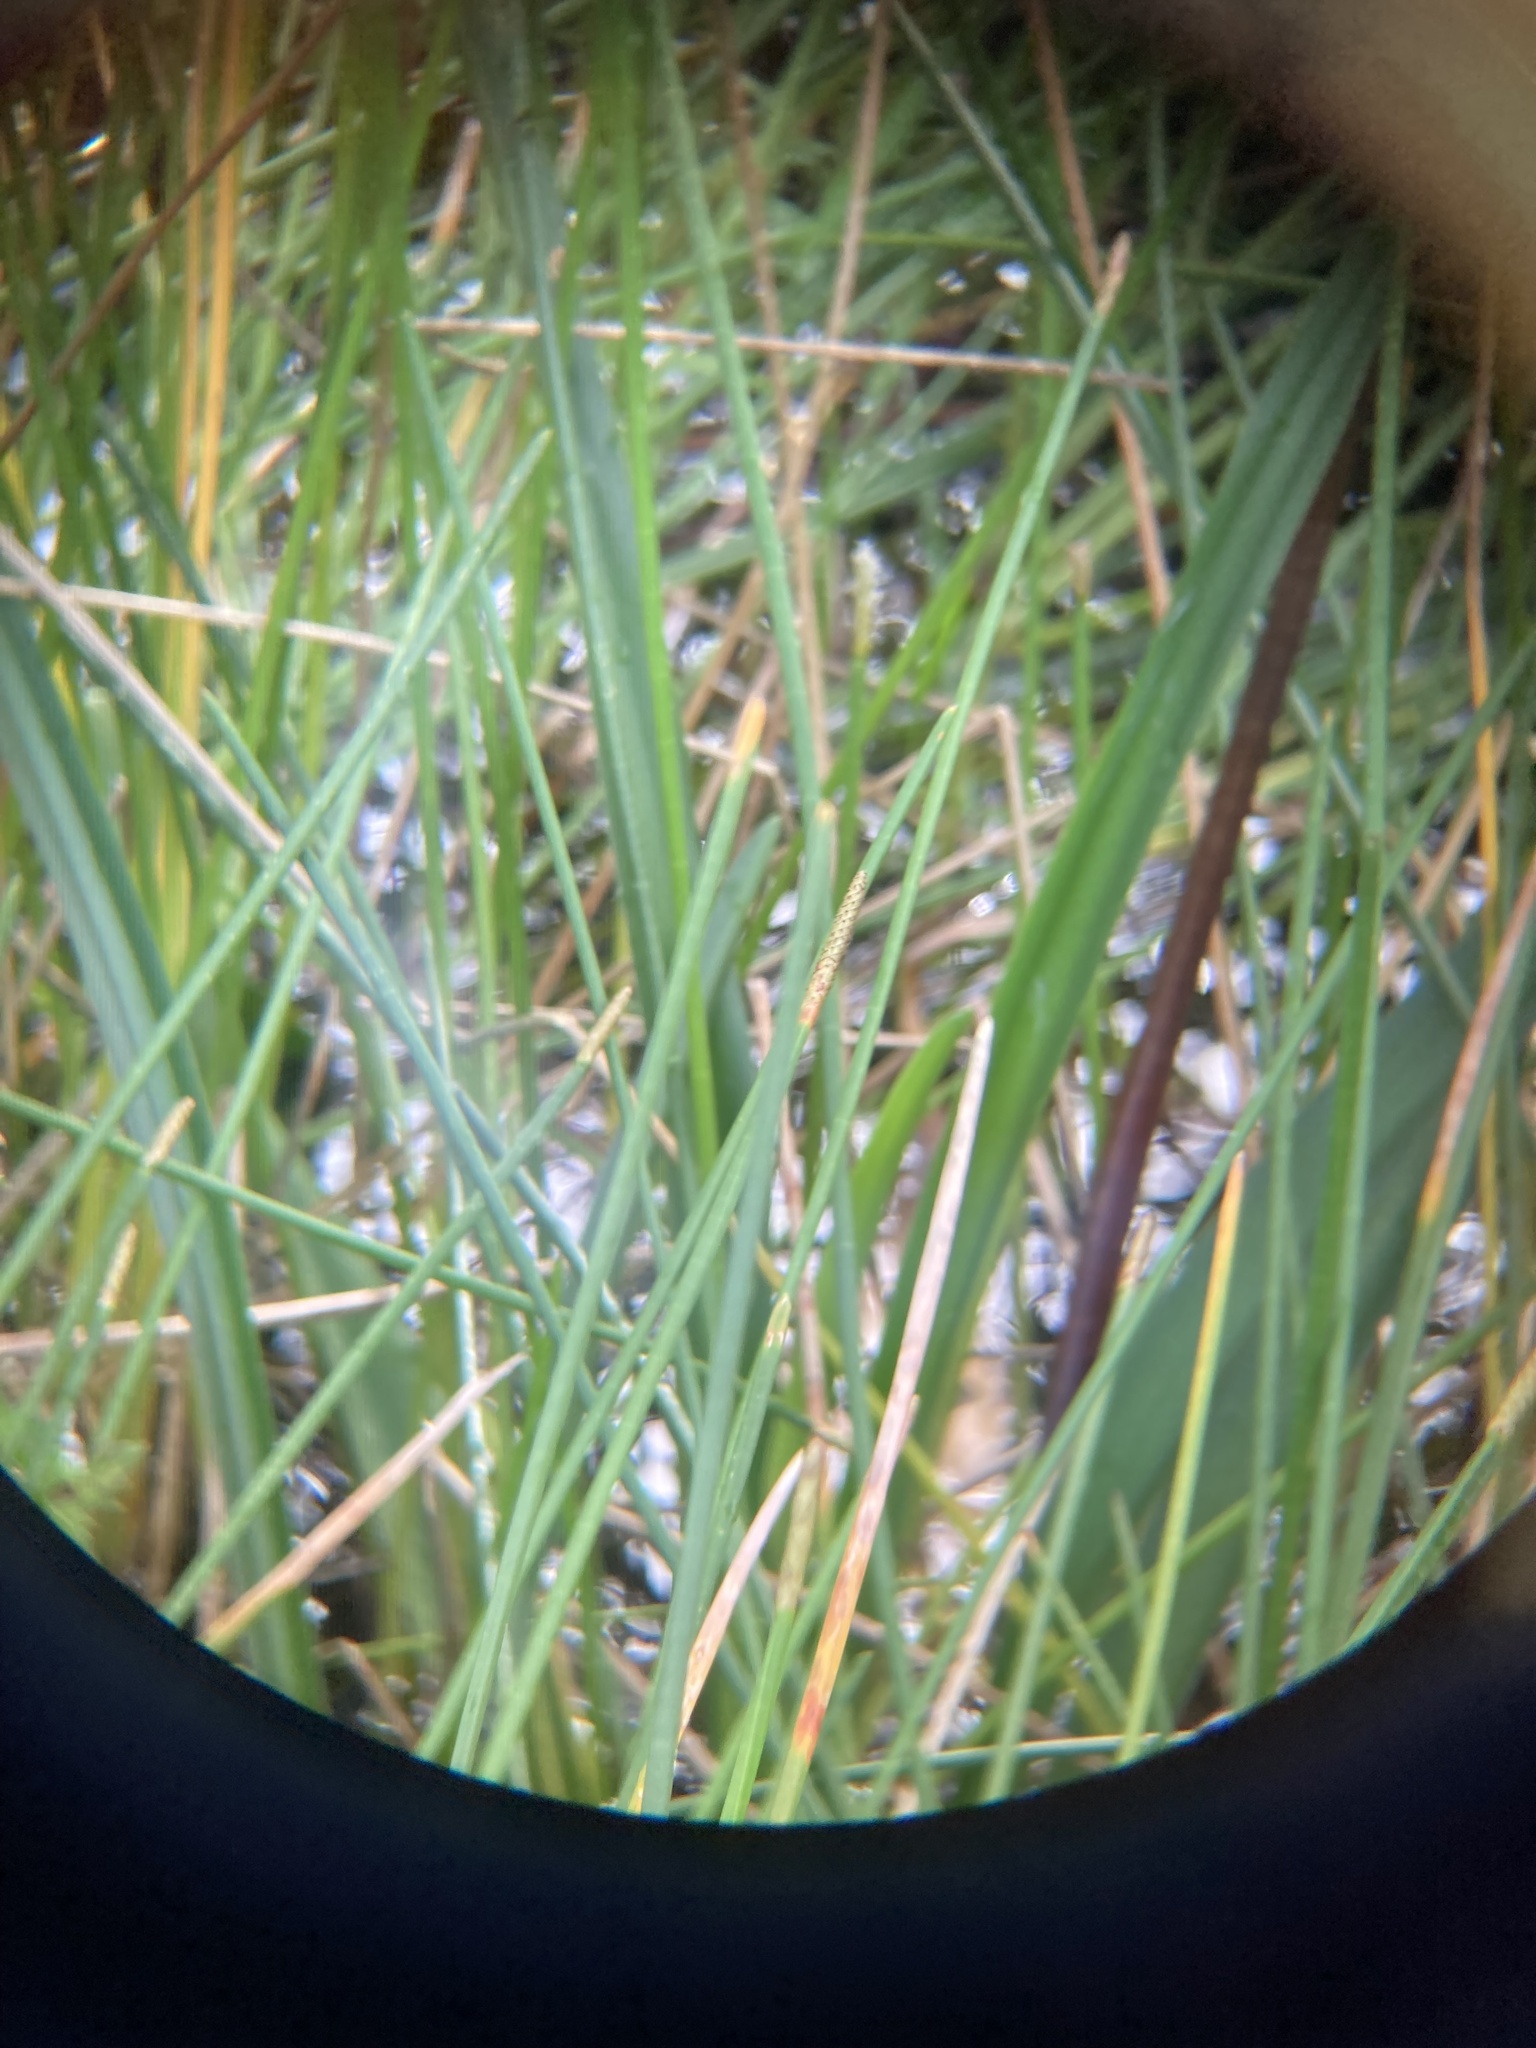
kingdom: Plantae
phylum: Tracheophyta
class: Liliopsida
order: Asparagales
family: Amaryllidaceae
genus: Crinum
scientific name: Crinum americanum
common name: Florida swamp-lily
